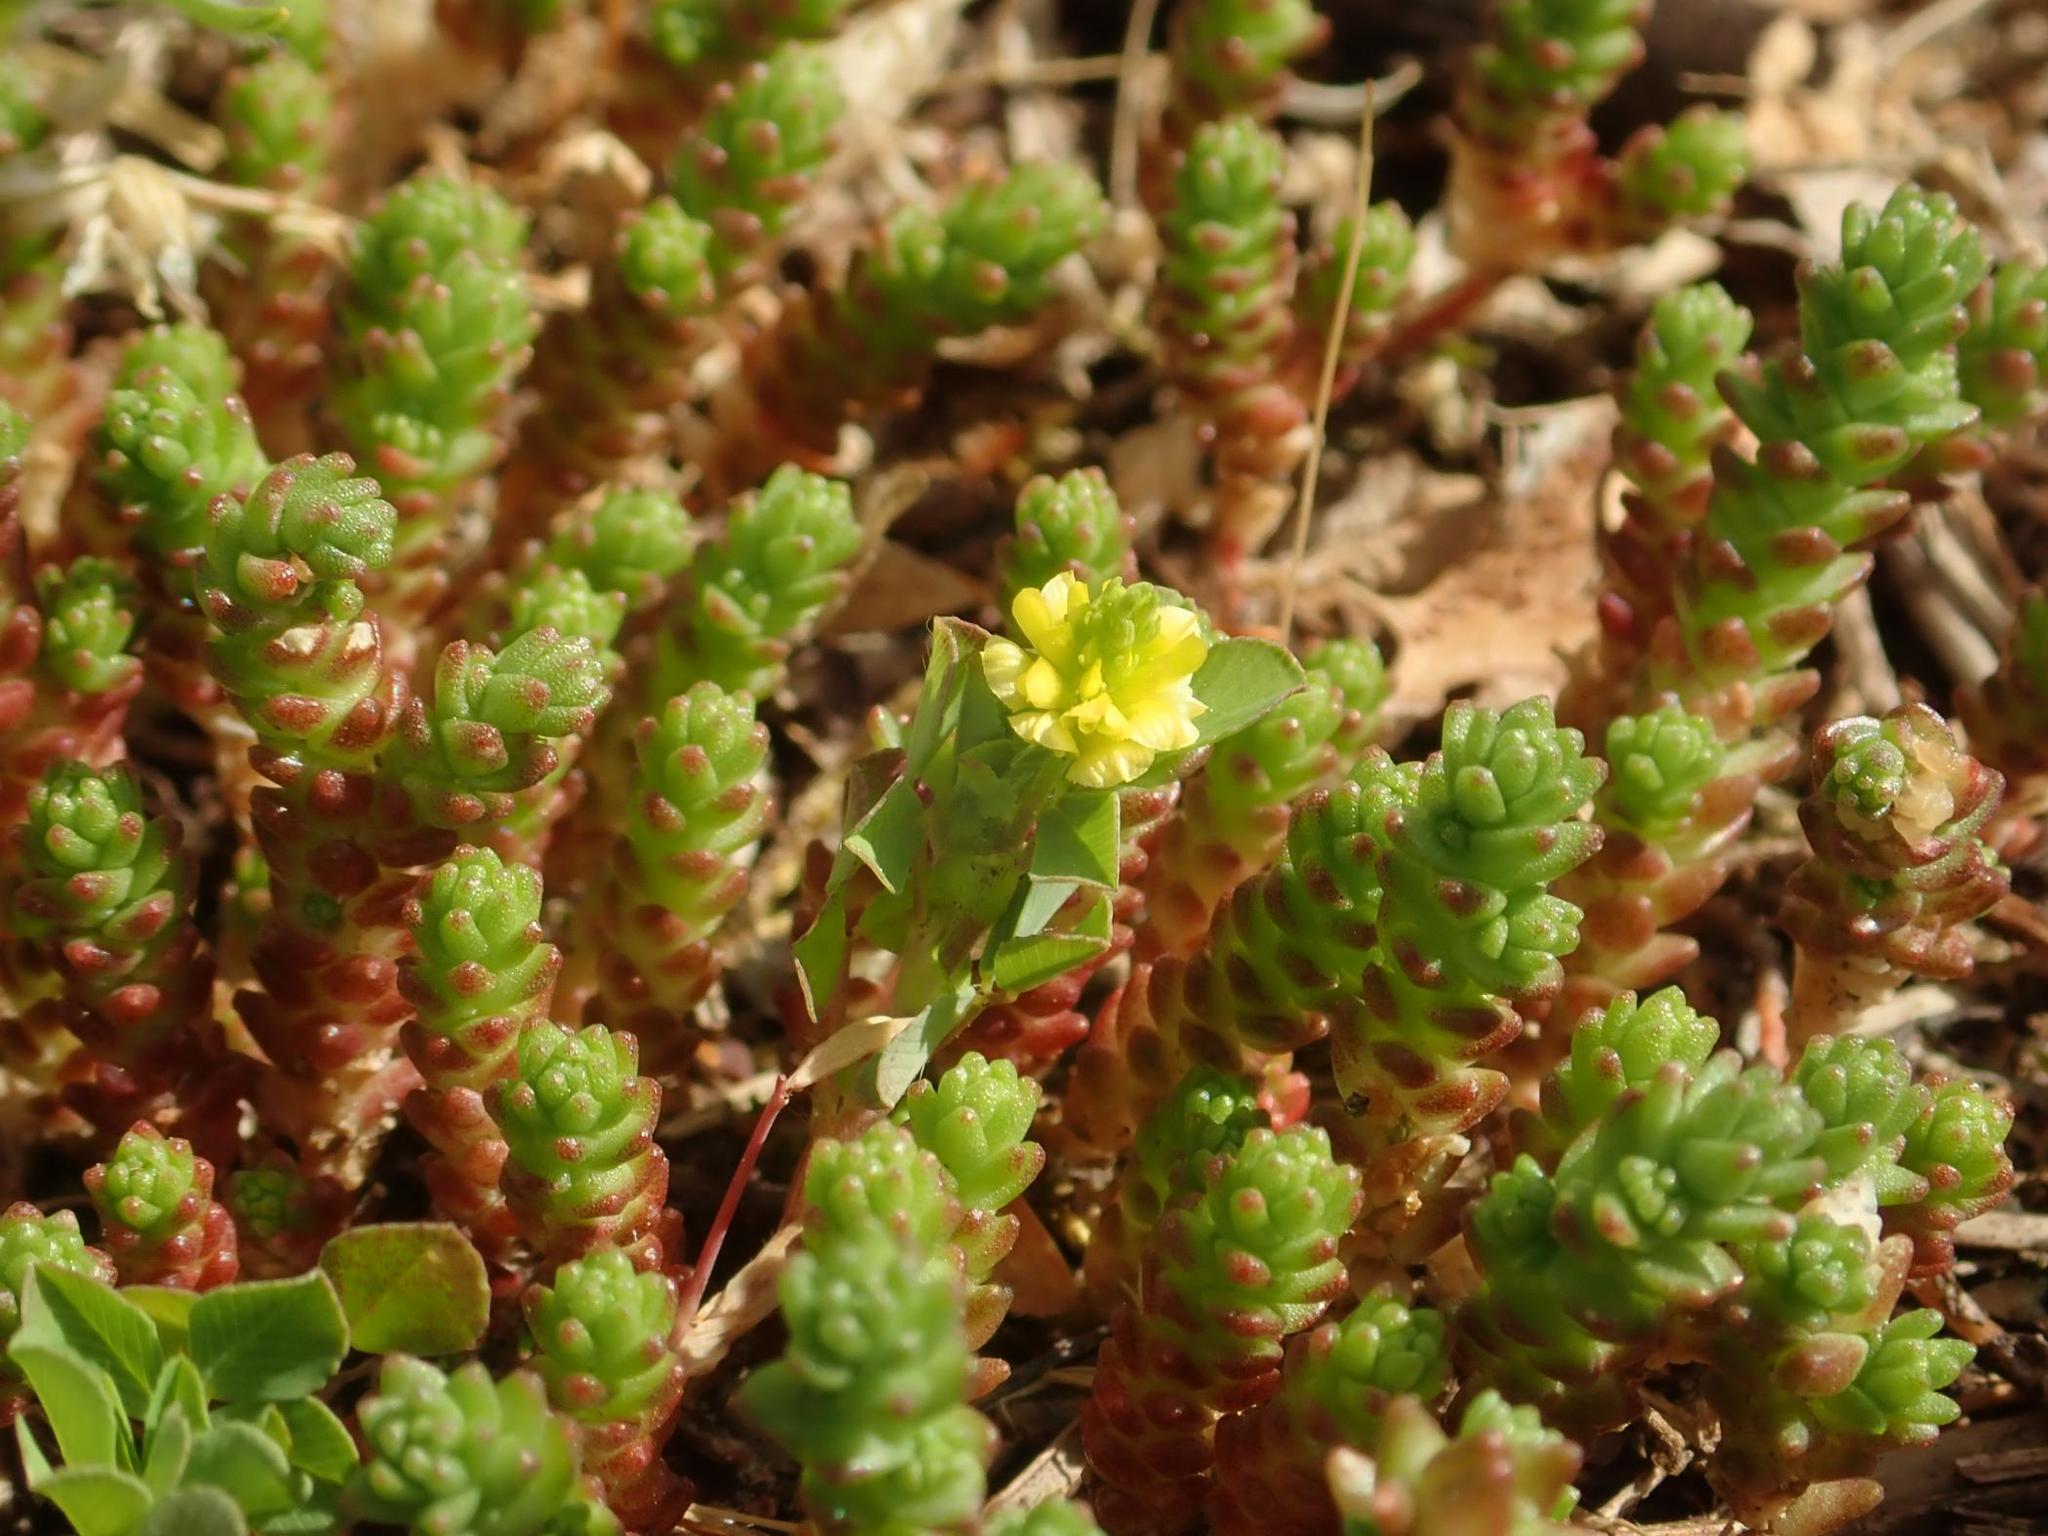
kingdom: Plantae
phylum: Tracheophyta
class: Magnoliopsida
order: Fabales
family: Fabaceae
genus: Trifolium
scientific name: Trifolium campestre
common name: Field clover
